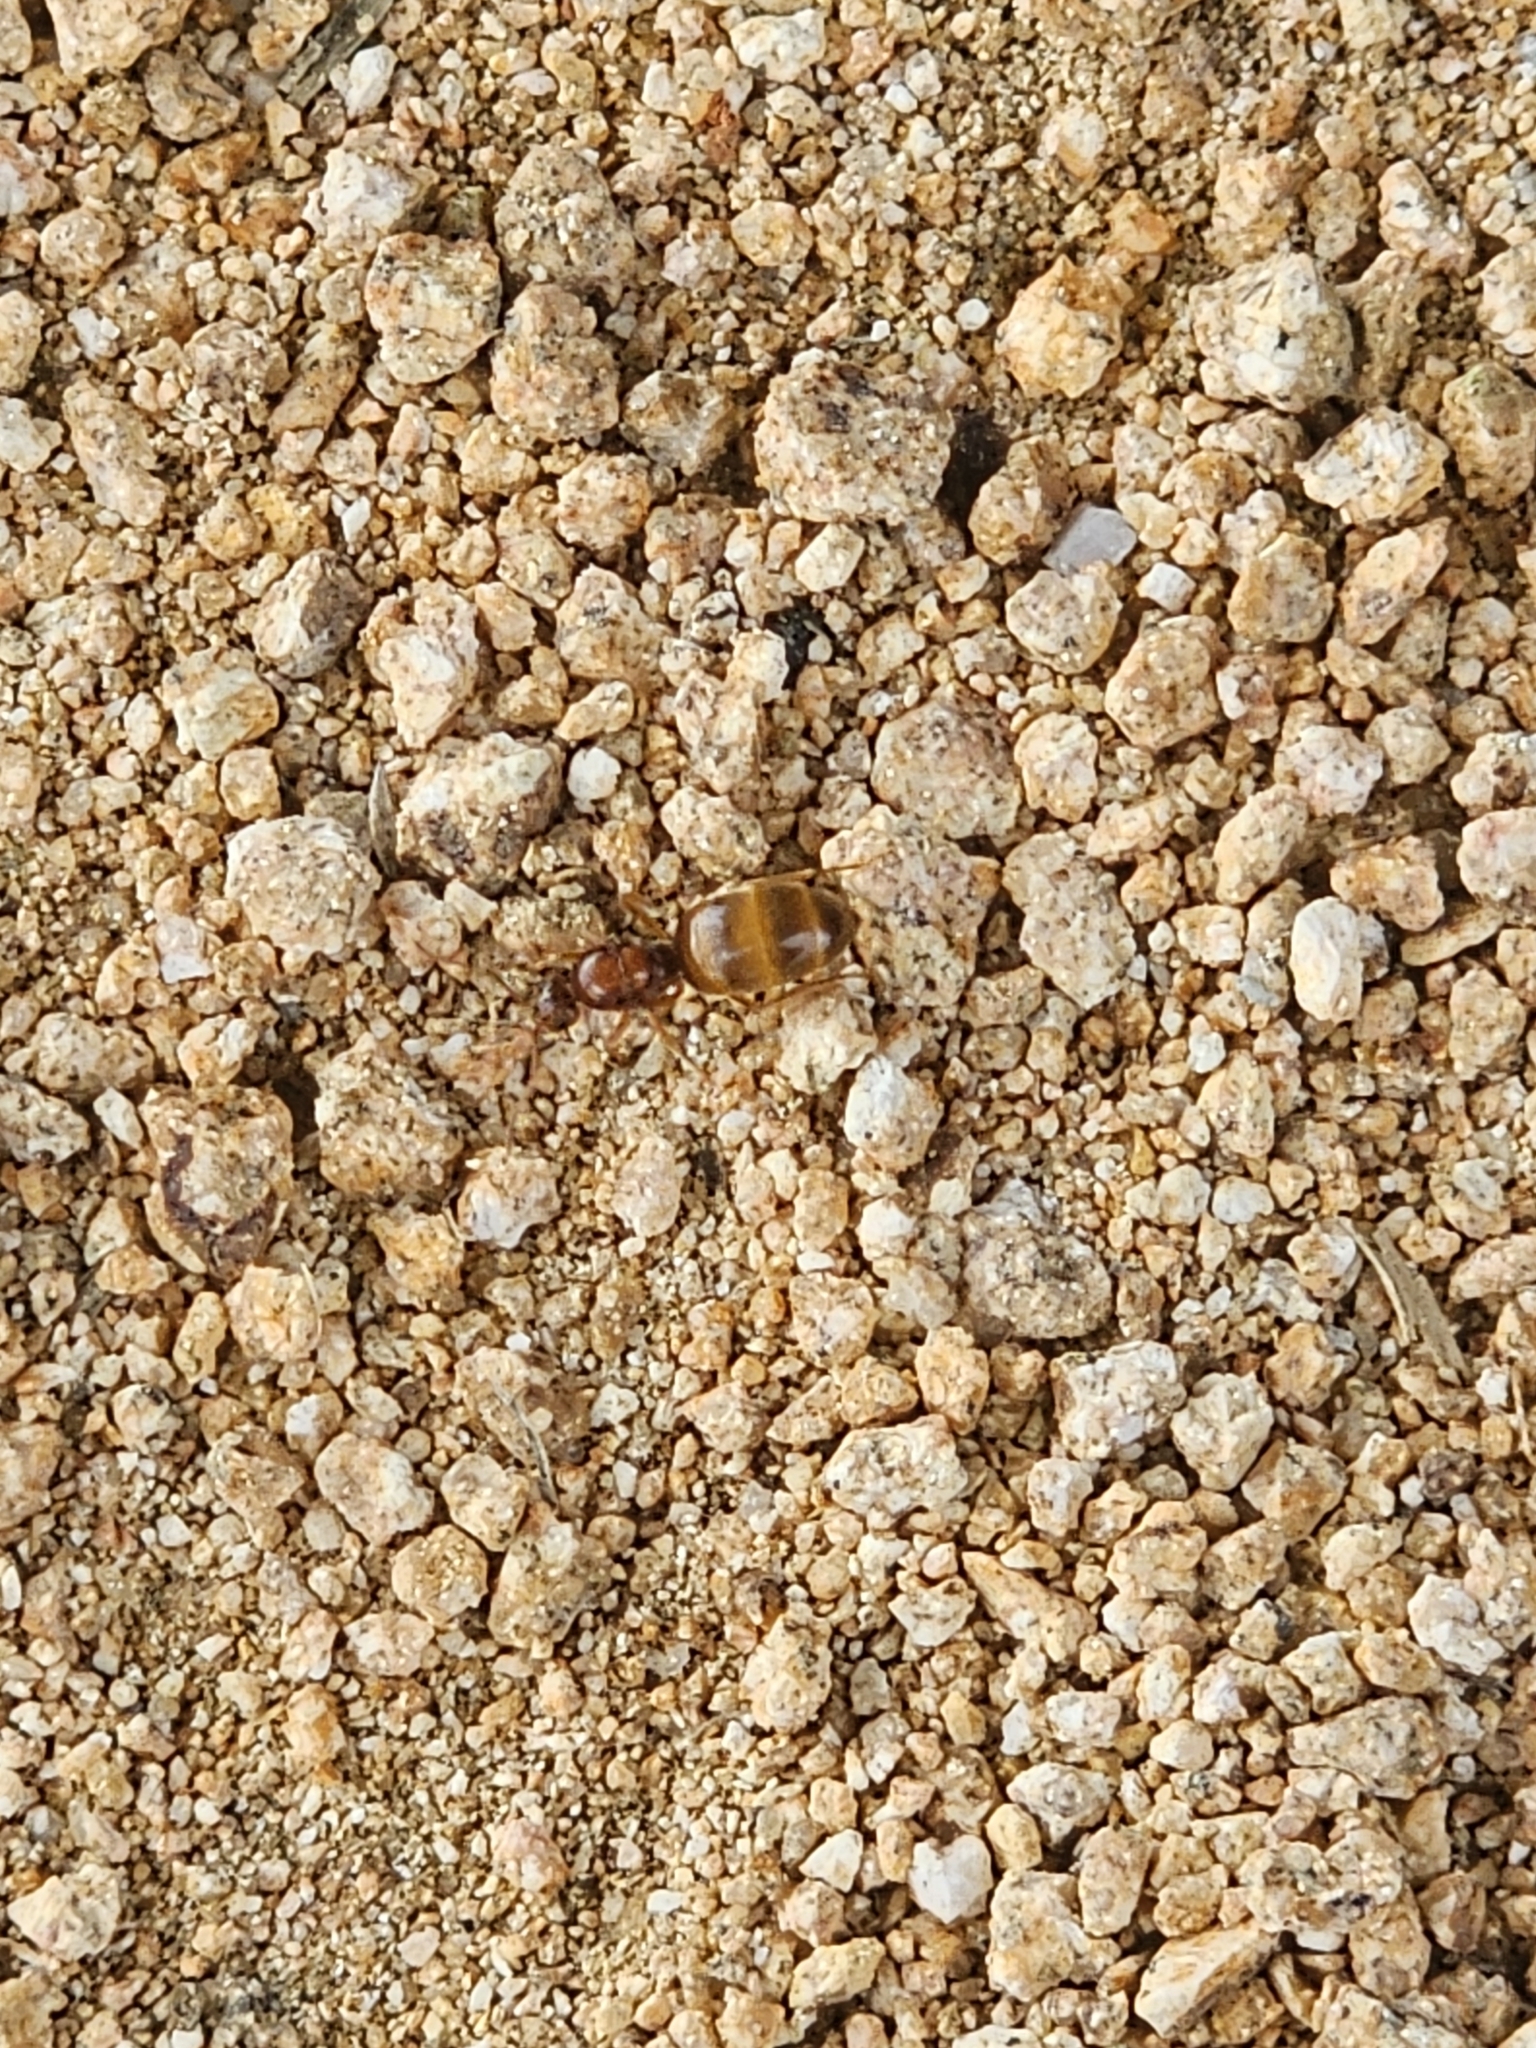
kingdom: Animalia
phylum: Arthropoda
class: Insecta
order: Hymenoptera
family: Formicidae
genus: Prenolepis
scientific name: Prenolepis imparis
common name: Small honey ant
